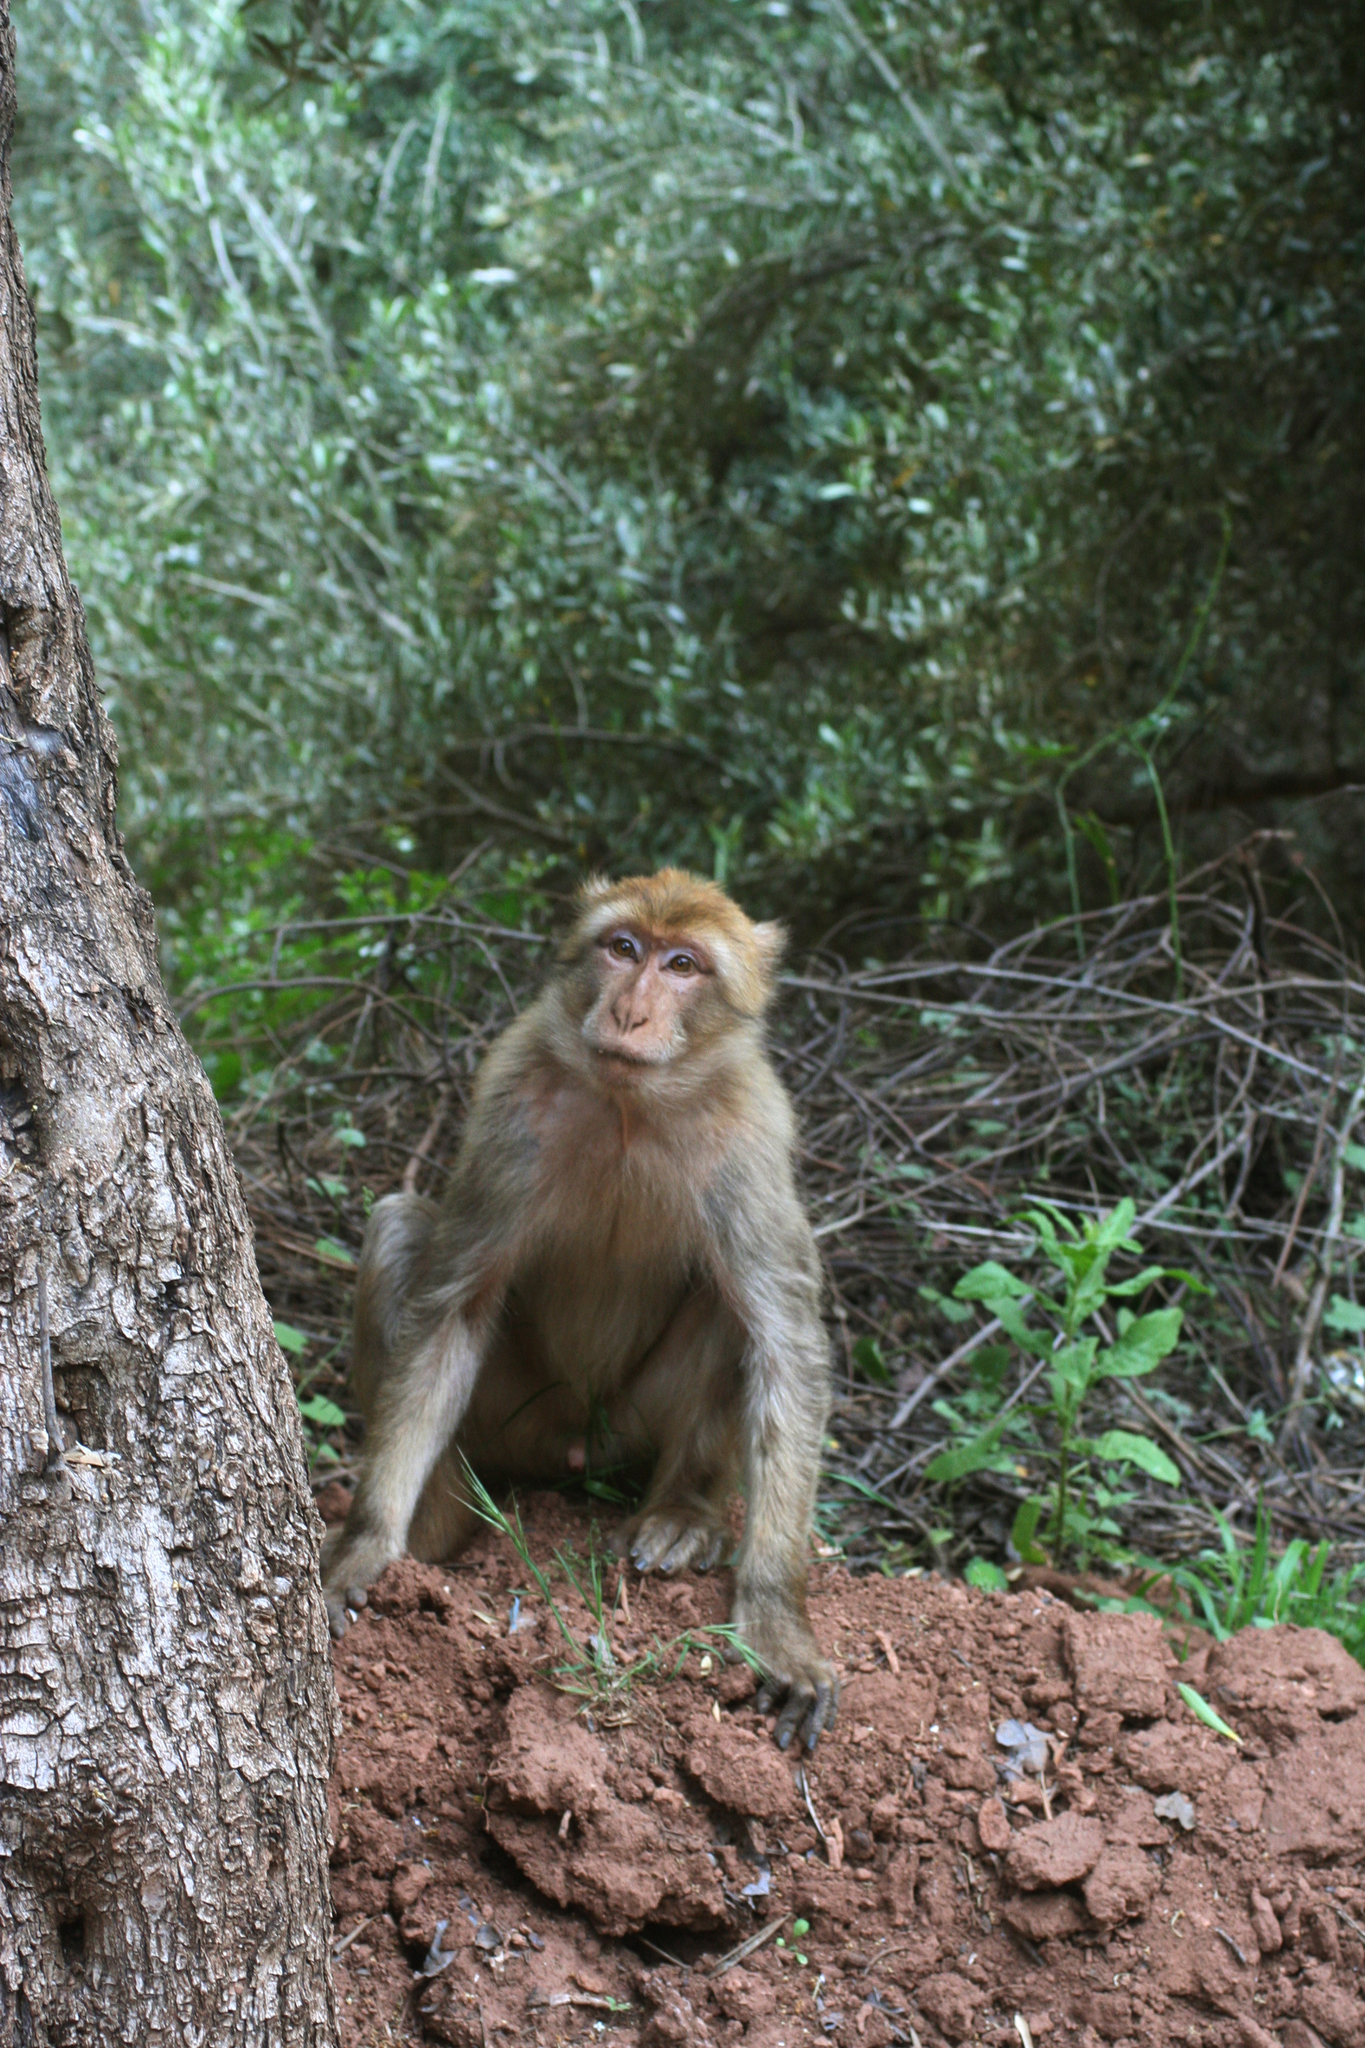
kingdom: Animalia
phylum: Chordata
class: Mammalia
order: Primates
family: Cercopithecidae
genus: Macaca
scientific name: Macaca sylvanus
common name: Barbary macaque
